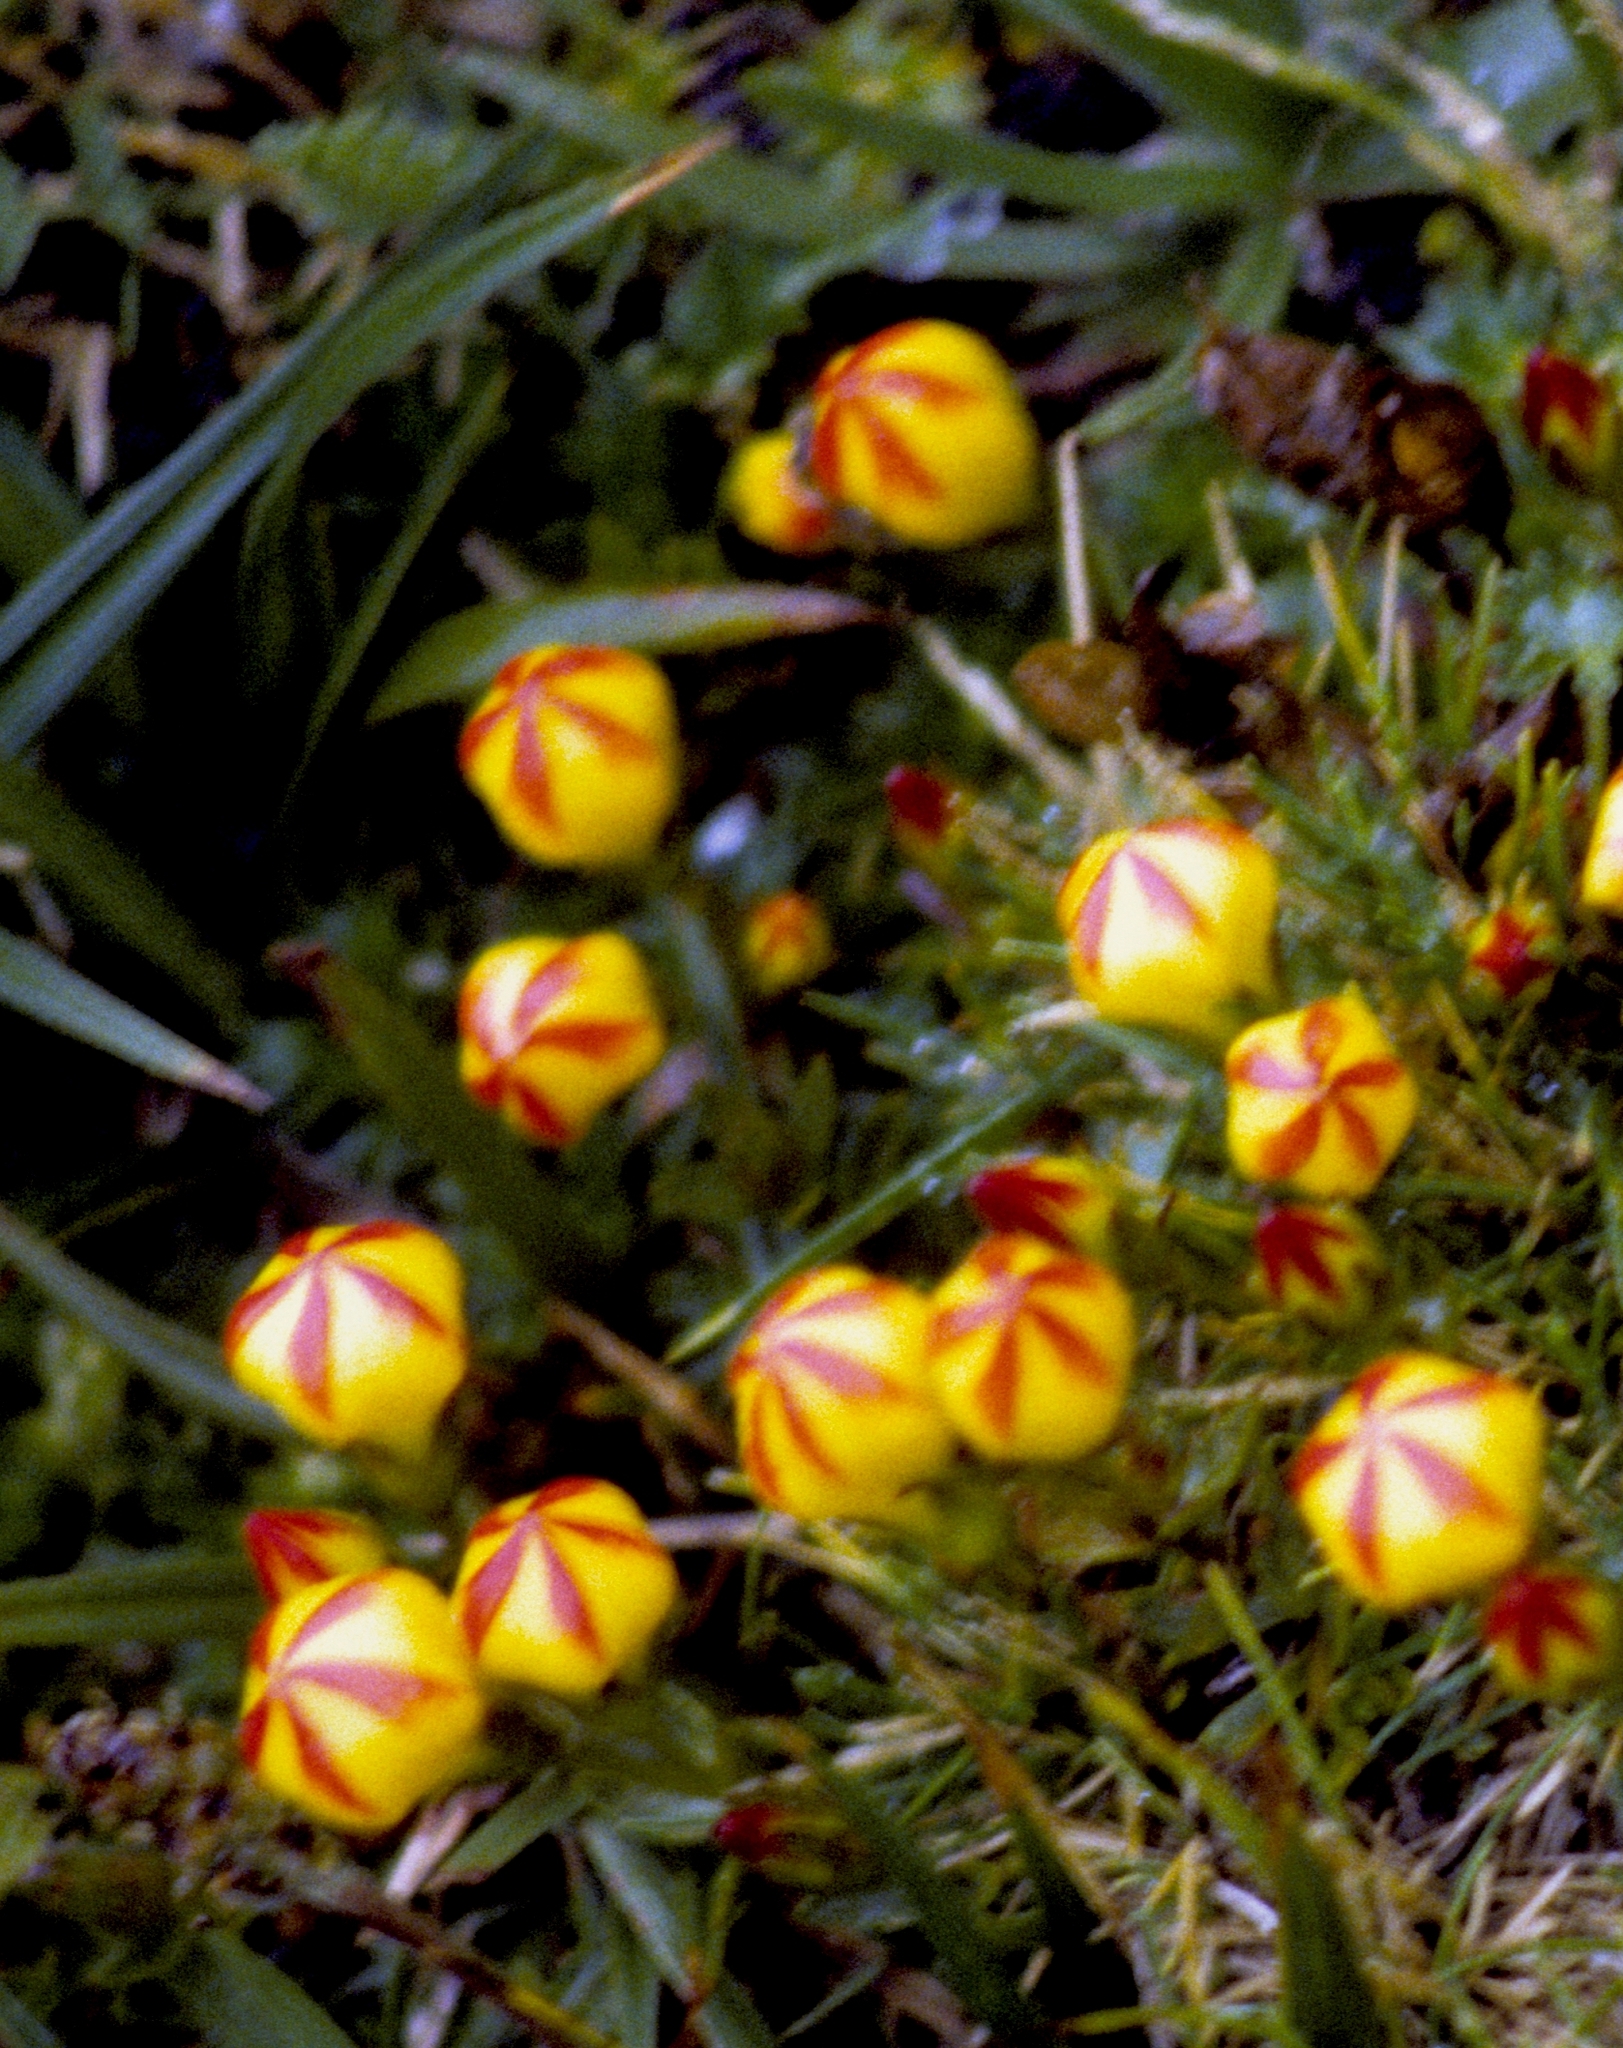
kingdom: Plantae
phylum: Tracheophyta
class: Magnoliopsida
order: Gentianales
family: Gentianaceae
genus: Gentianella
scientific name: Gentianella hirculus
